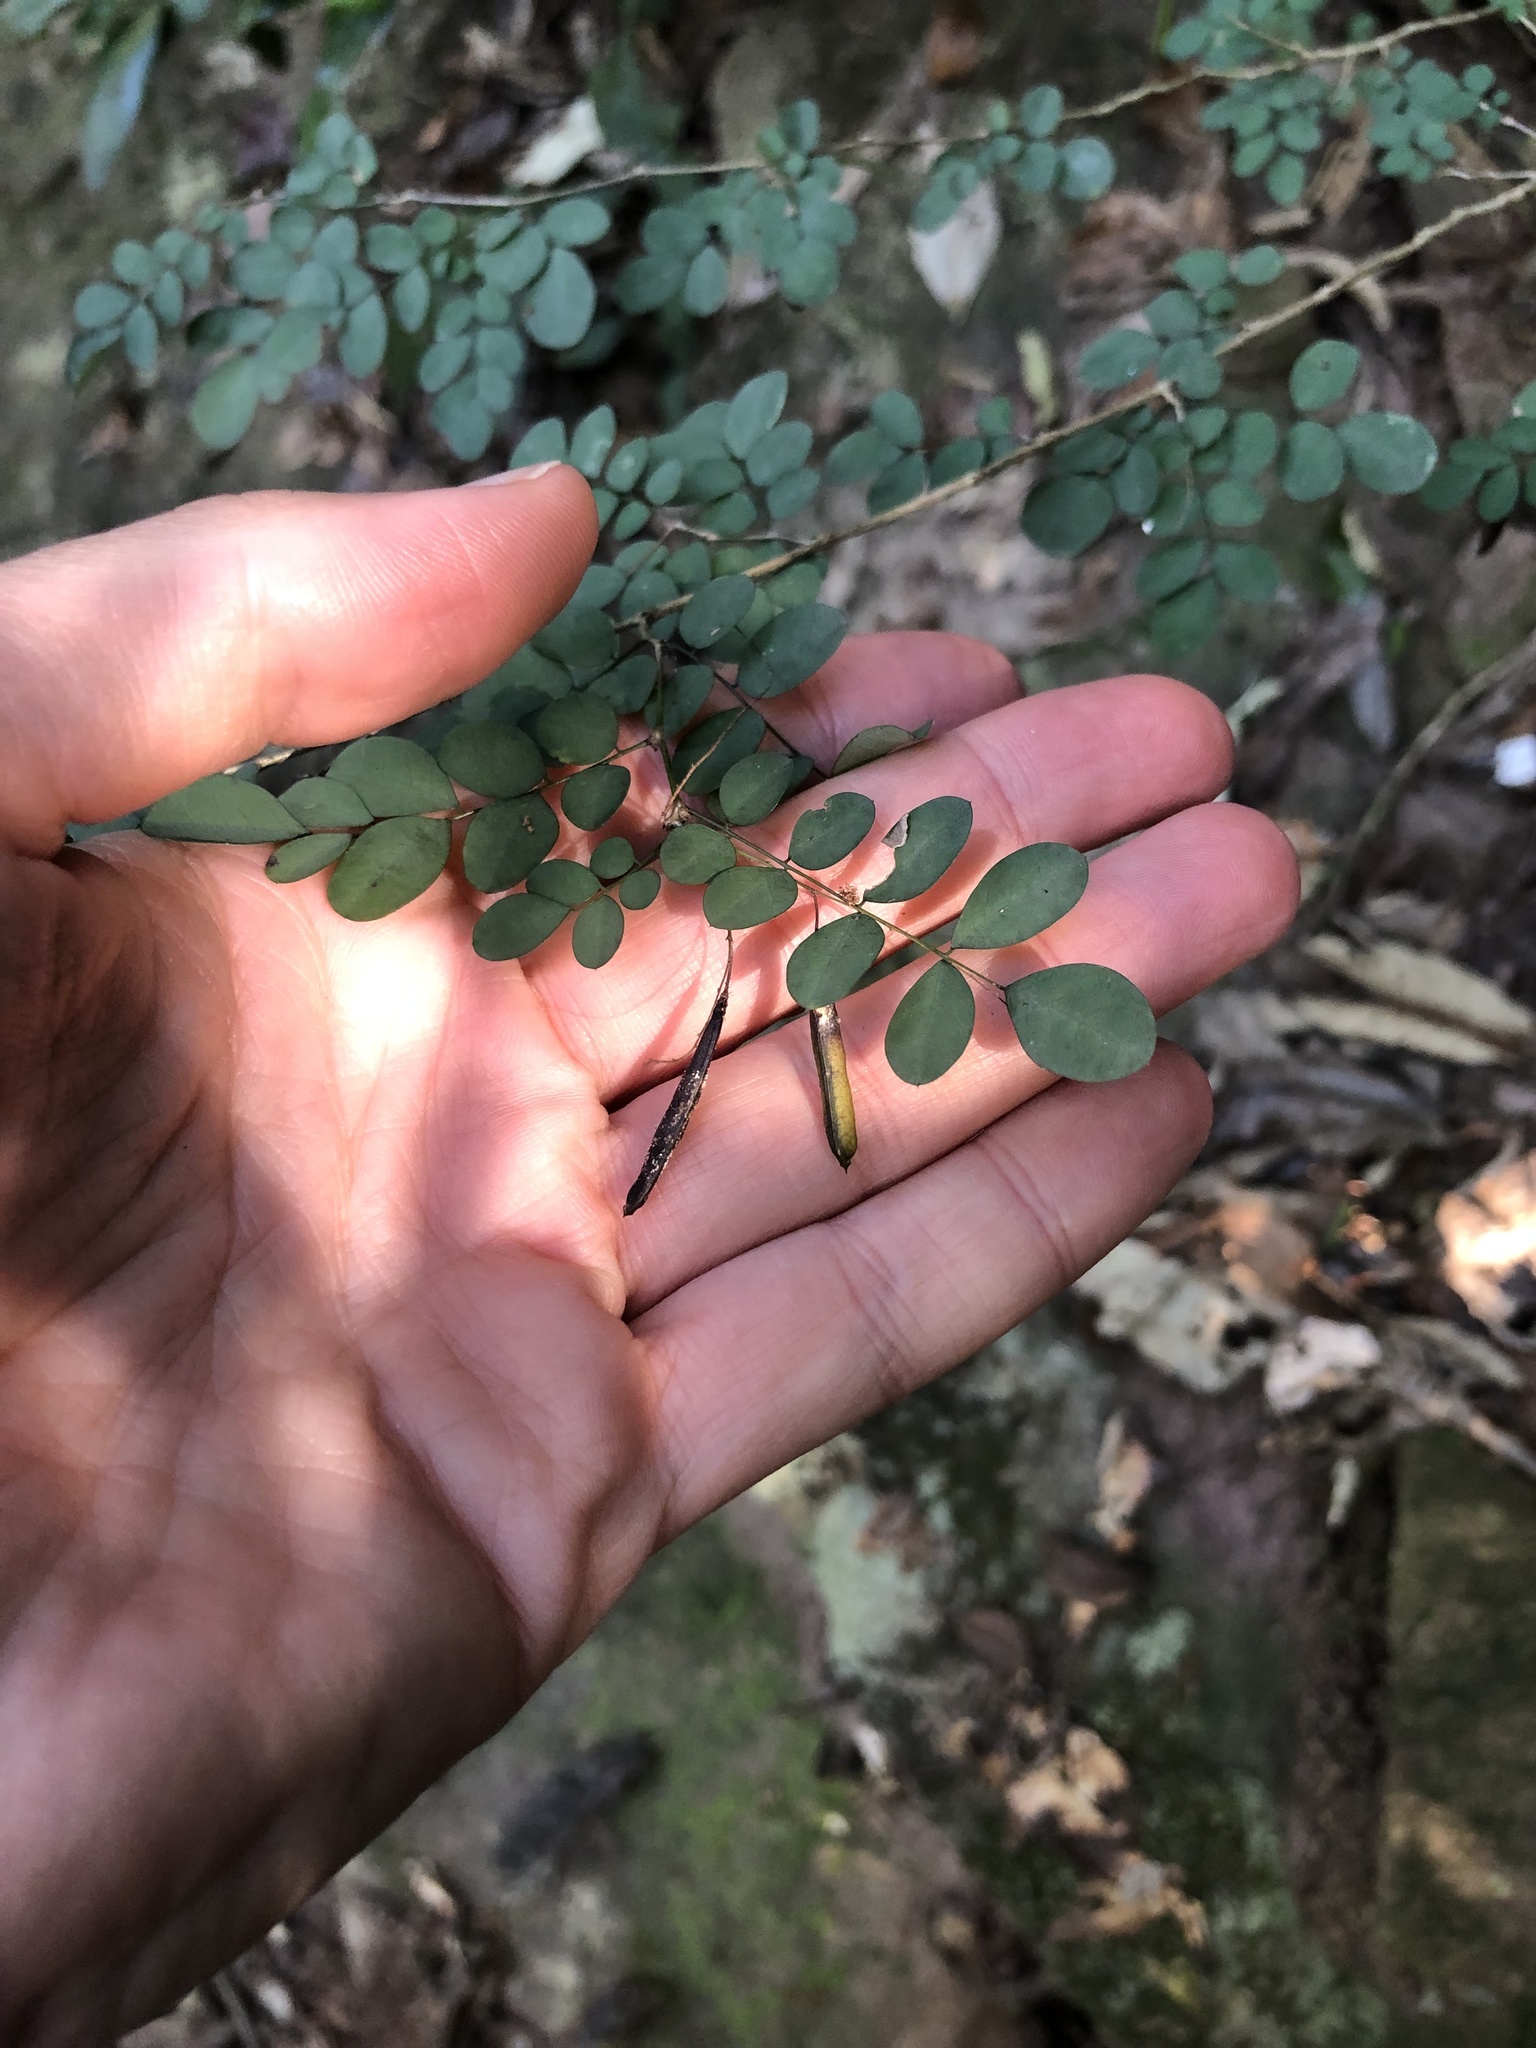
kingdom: Plantae
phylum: Tracheophyta
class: Magnoliopsida
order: Fabales
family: Fabaceae
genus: Indigofera
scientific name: Indigofera
